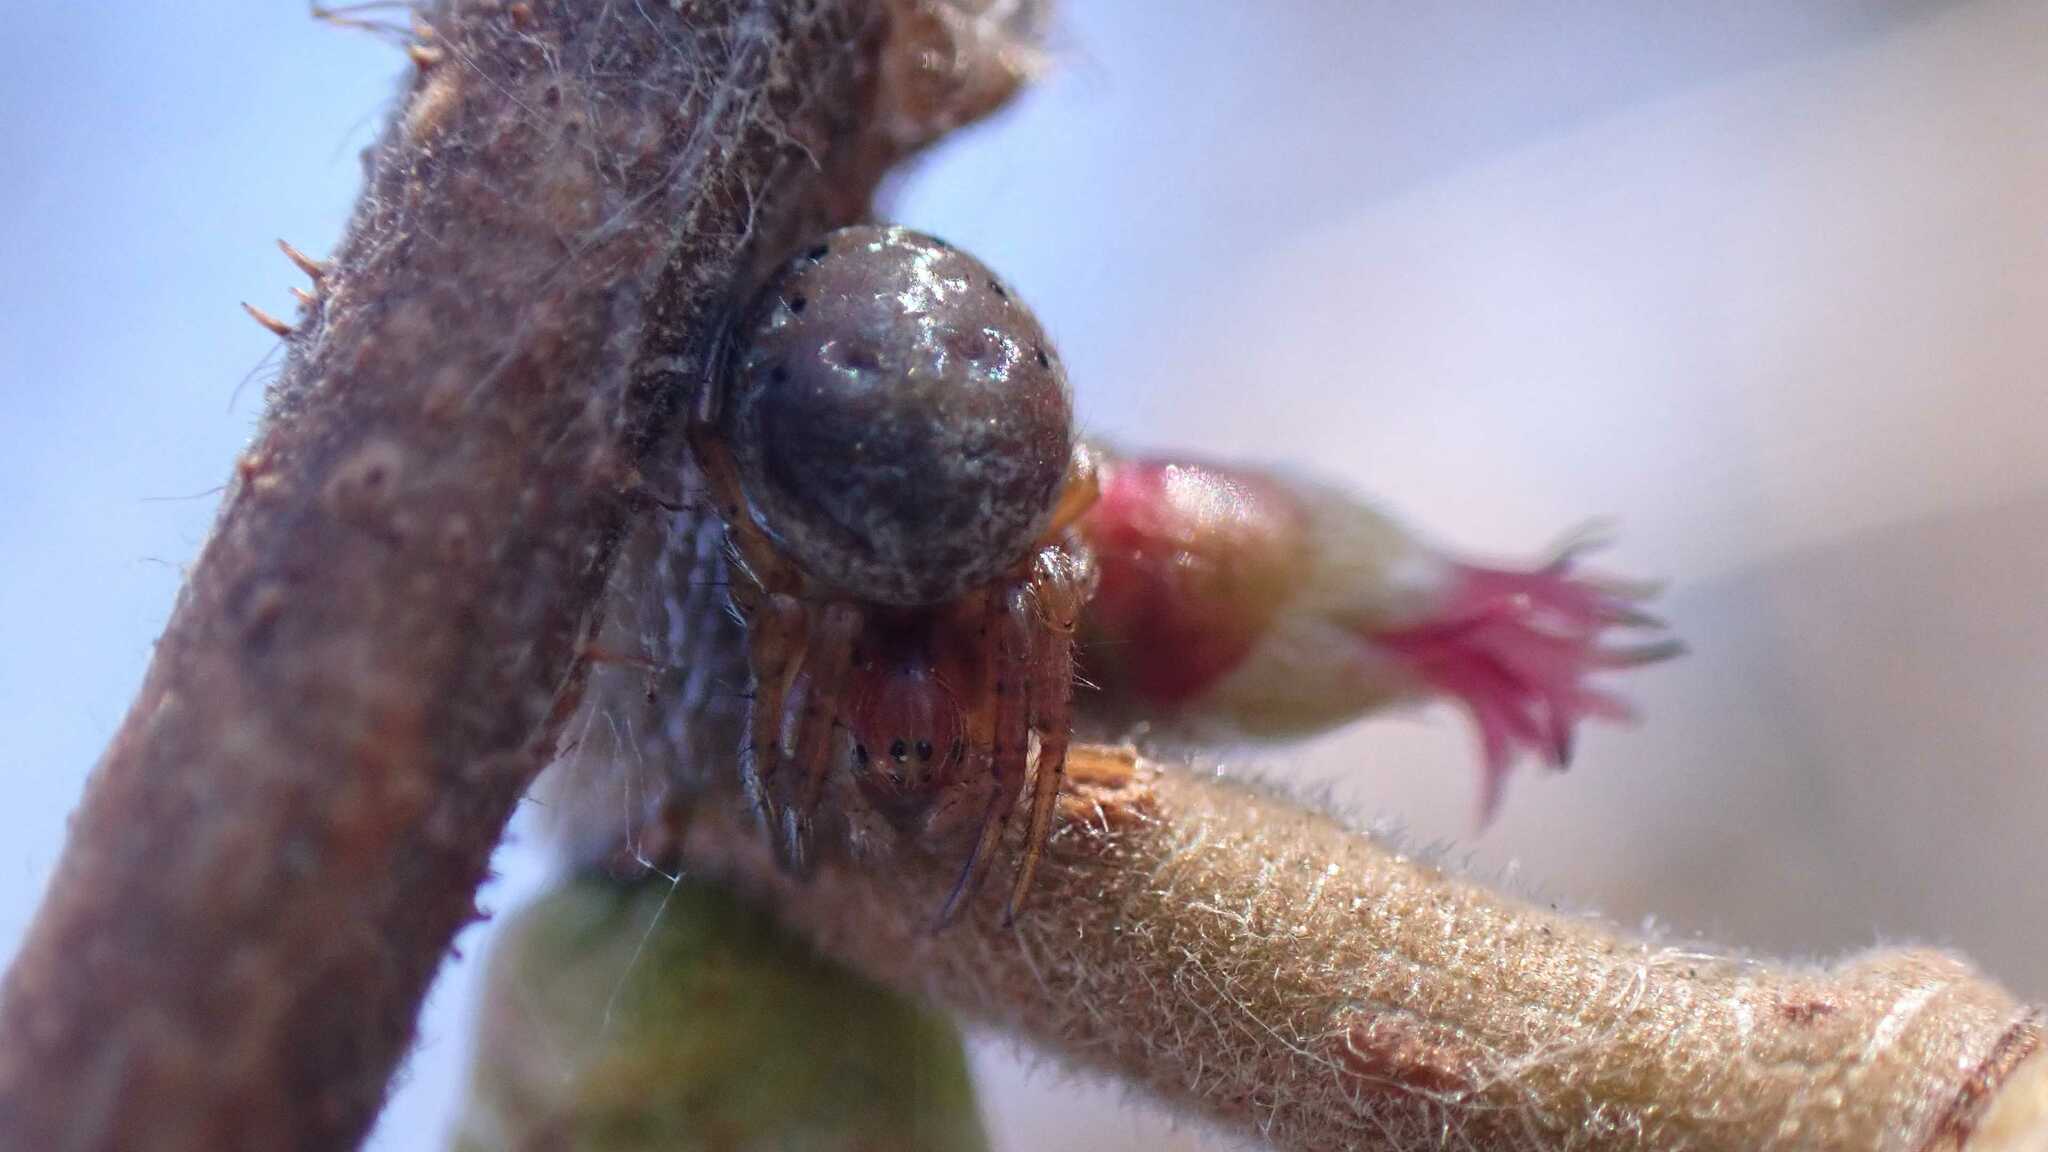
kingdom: Animalia
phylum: Arthropoda
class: Arachnida
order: Araneae
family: Araneidae
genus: Araniella
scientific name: Araniella
